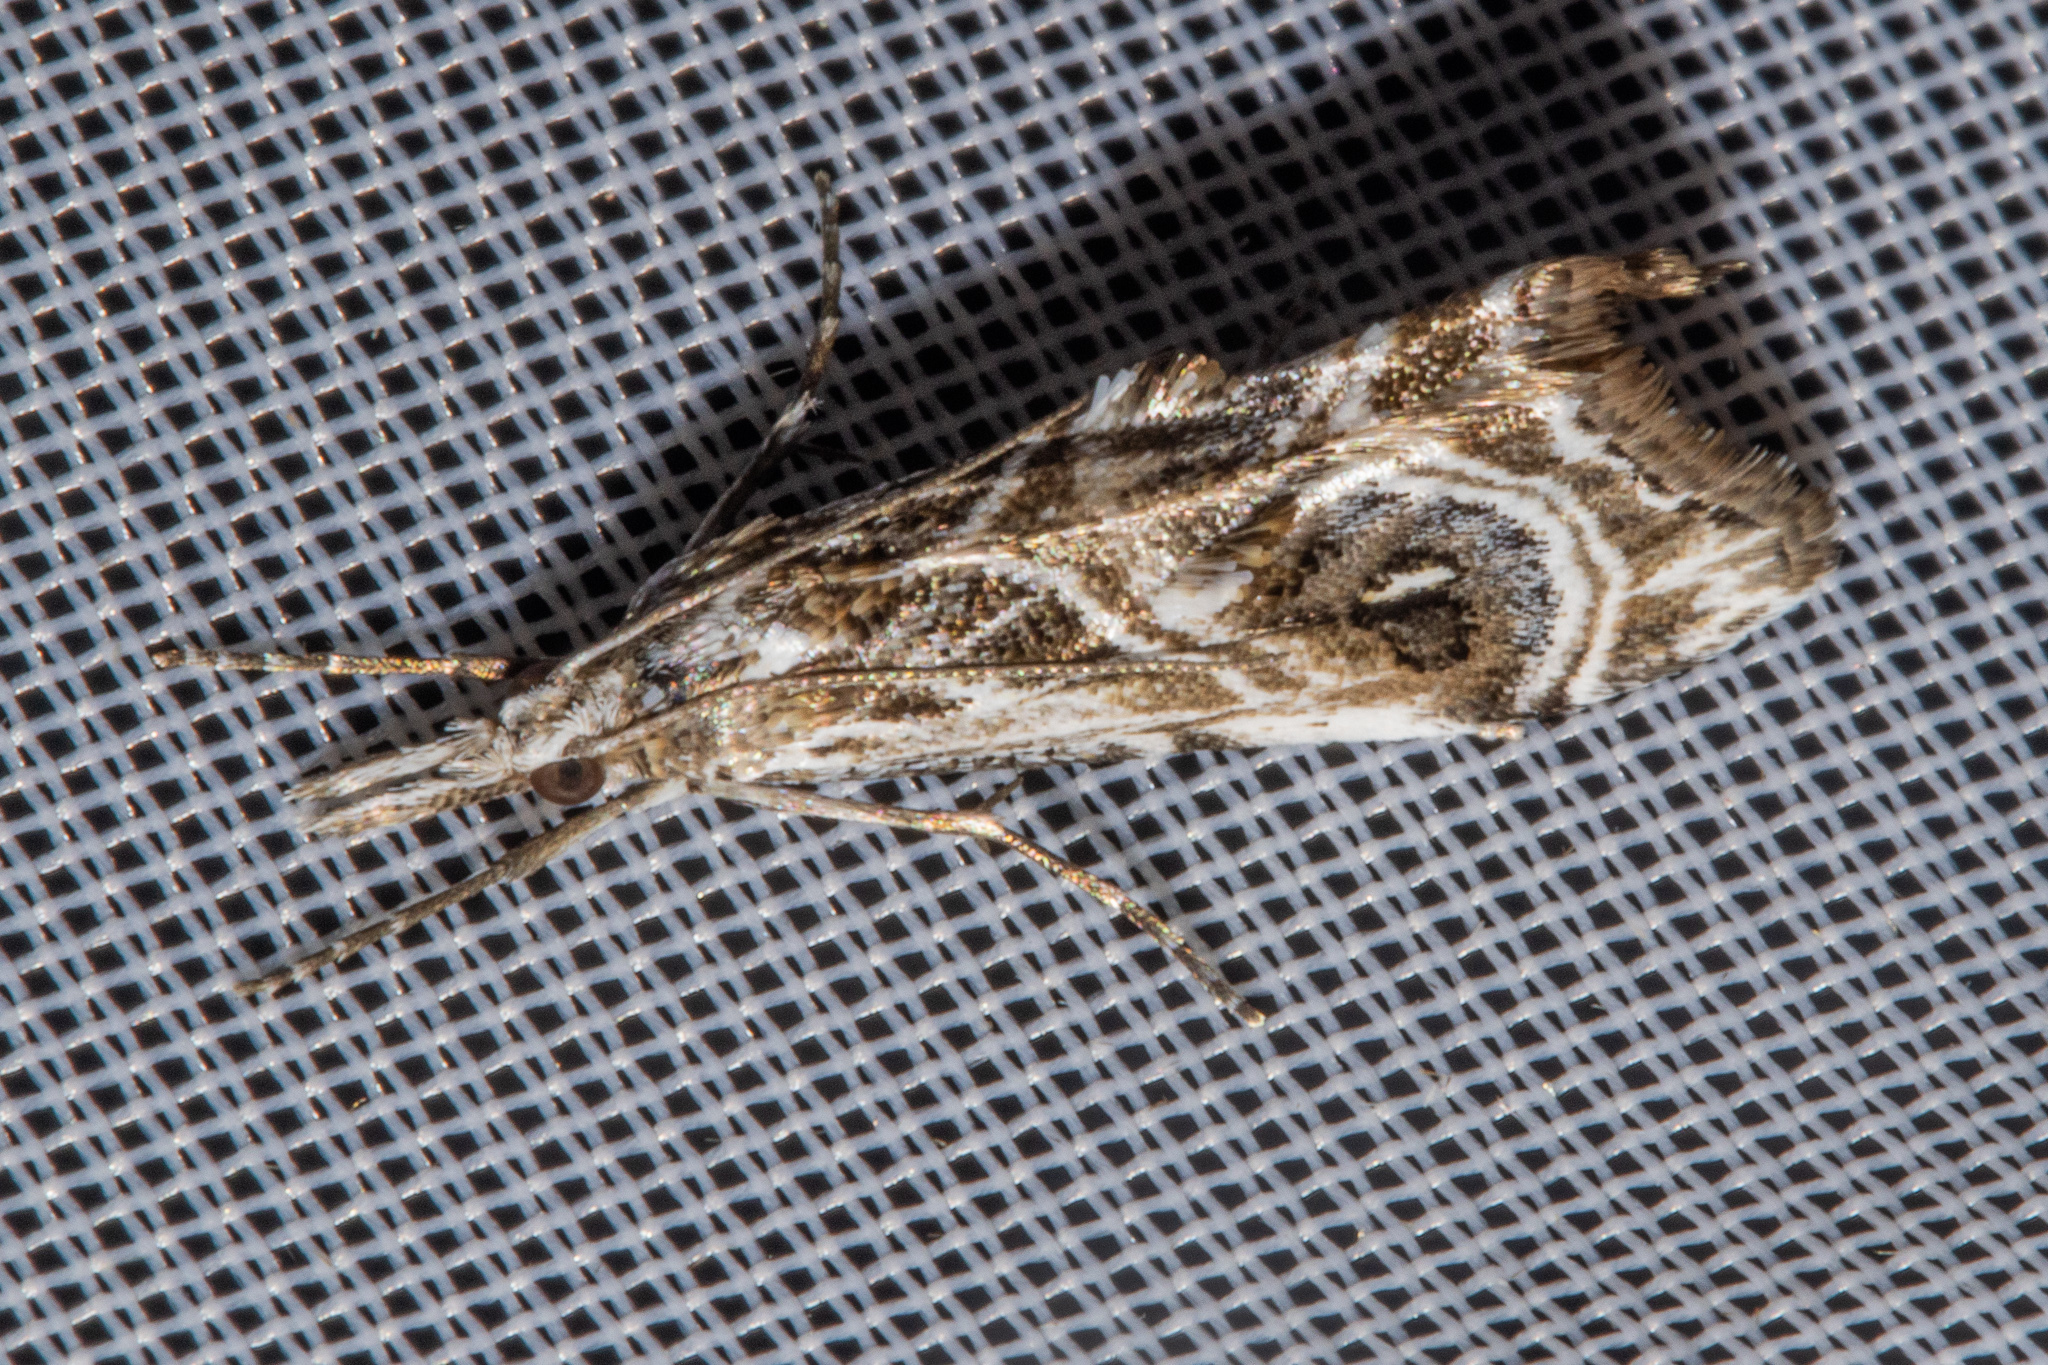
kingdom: Animalia
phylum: Arthropoda
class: Insecta
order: Lepidoptera
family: Crambidae
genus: Gadira
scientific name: Gadira acerella
